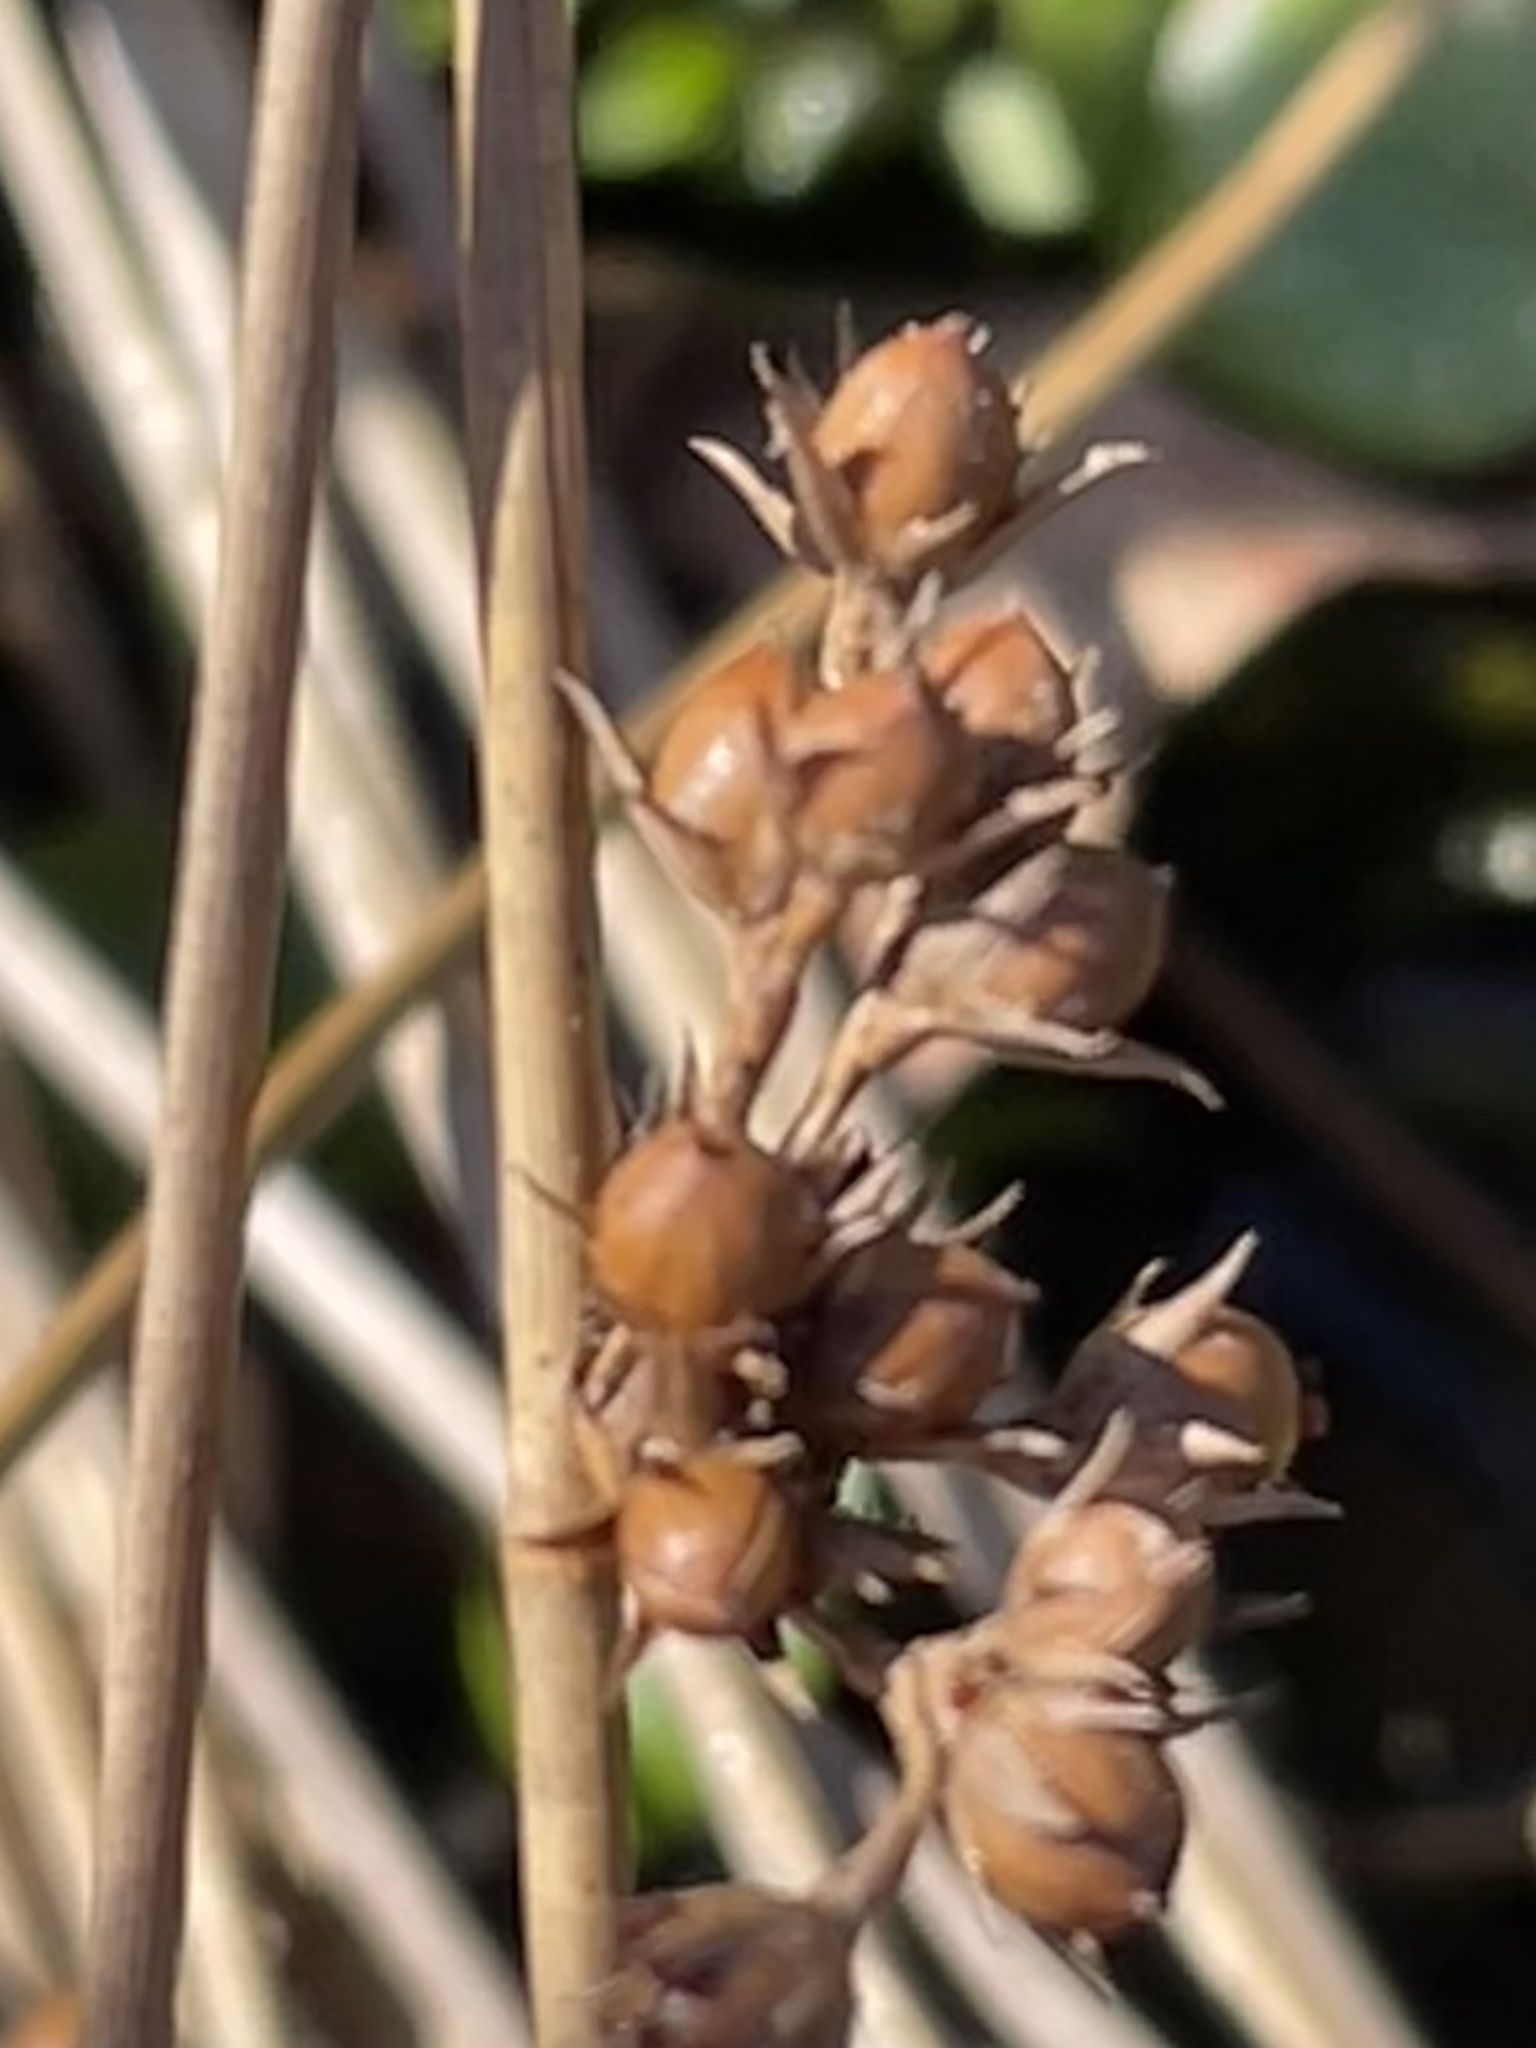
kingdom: Plantae
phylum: Tracheophyta
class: Liliopsida
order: Poales
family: Juncaceae
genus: Juncus
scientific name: Juncus coriaceus
